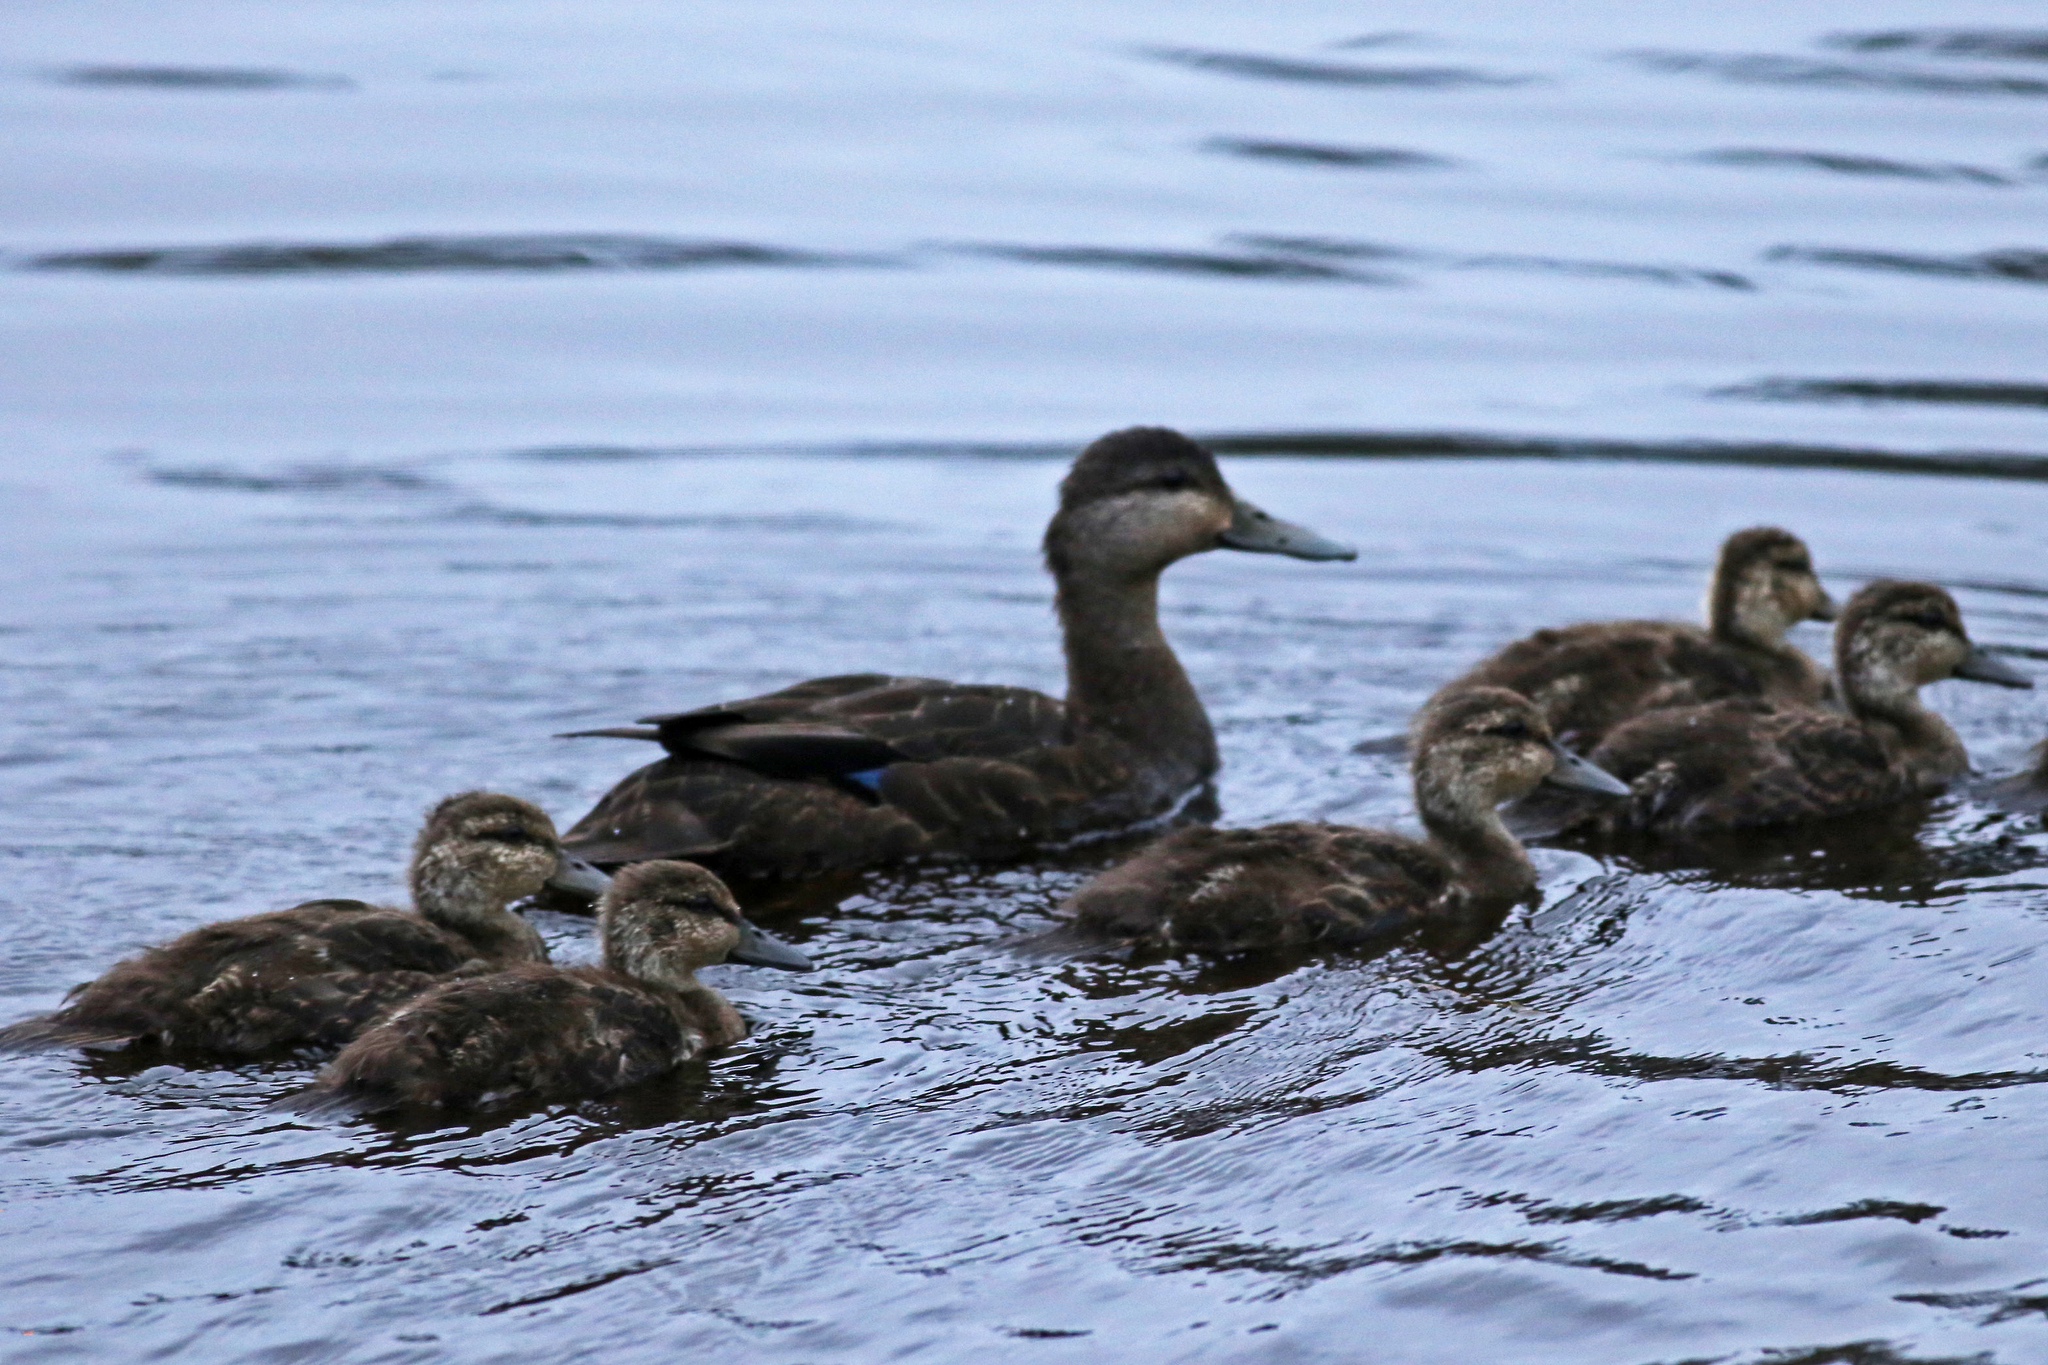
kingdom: Animalia
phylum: Chordata
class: Aves
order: Anseriformes
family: Anatidae
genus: Anas
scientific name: Anas rubripes
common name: American black duck
